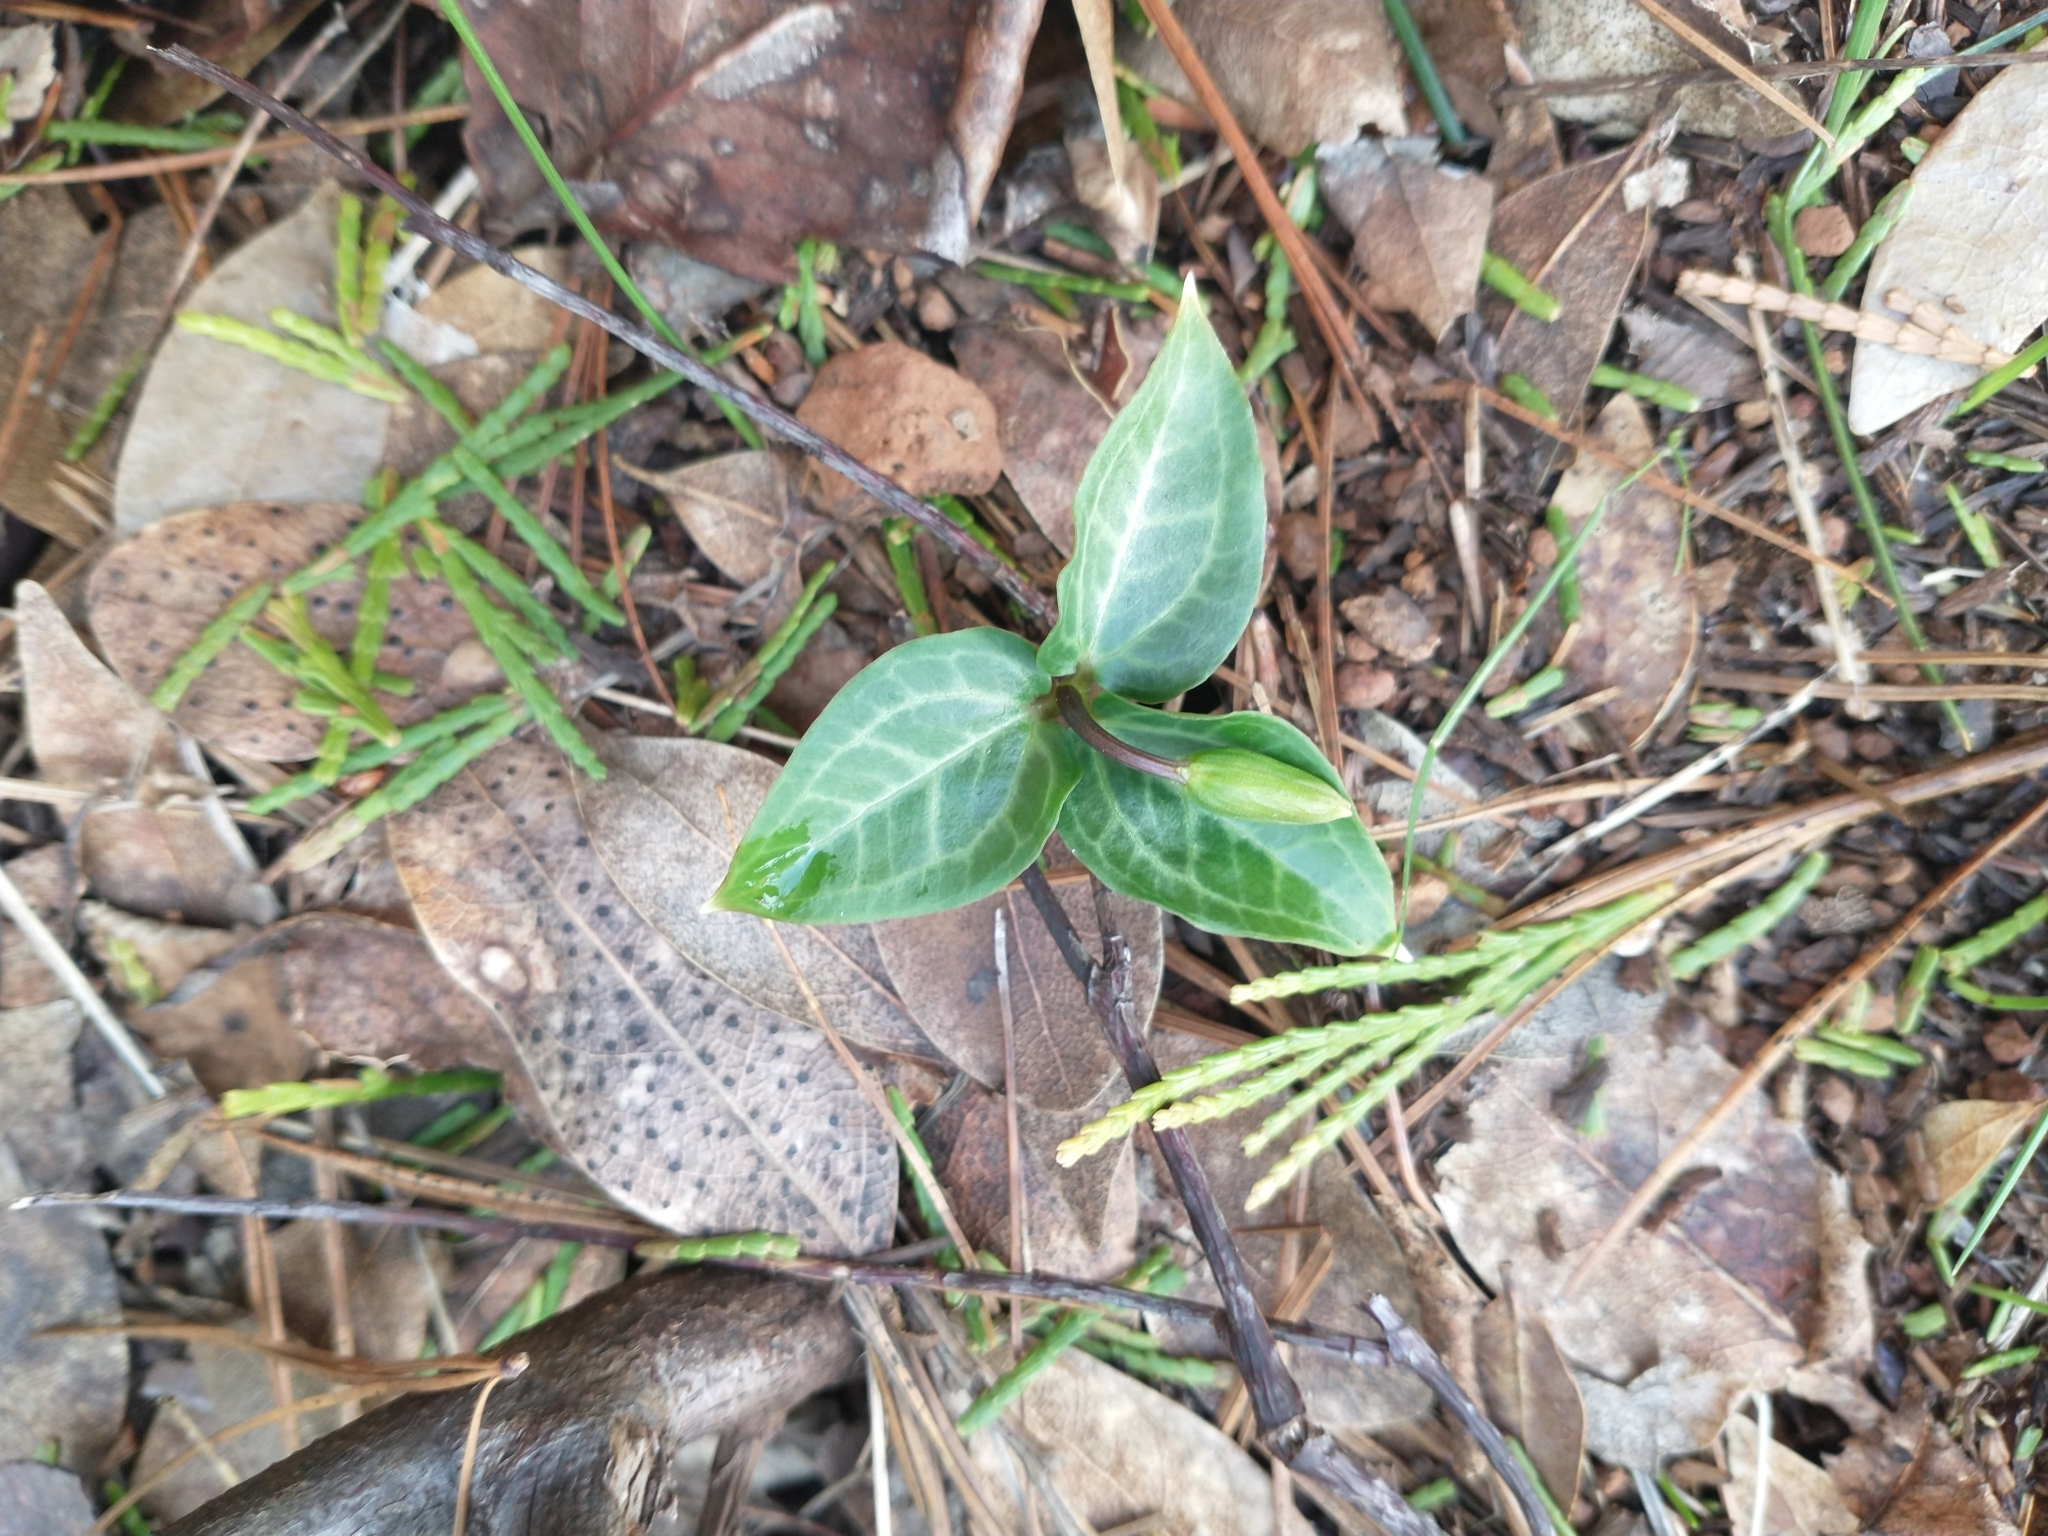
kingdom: Plantae
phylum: Tracheophyta
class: Liliopsida
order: Liliales
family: Melanthiaceae
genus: Pseudotrillium
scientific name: Pseudotrillium rivale
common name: Brook wakerobin
